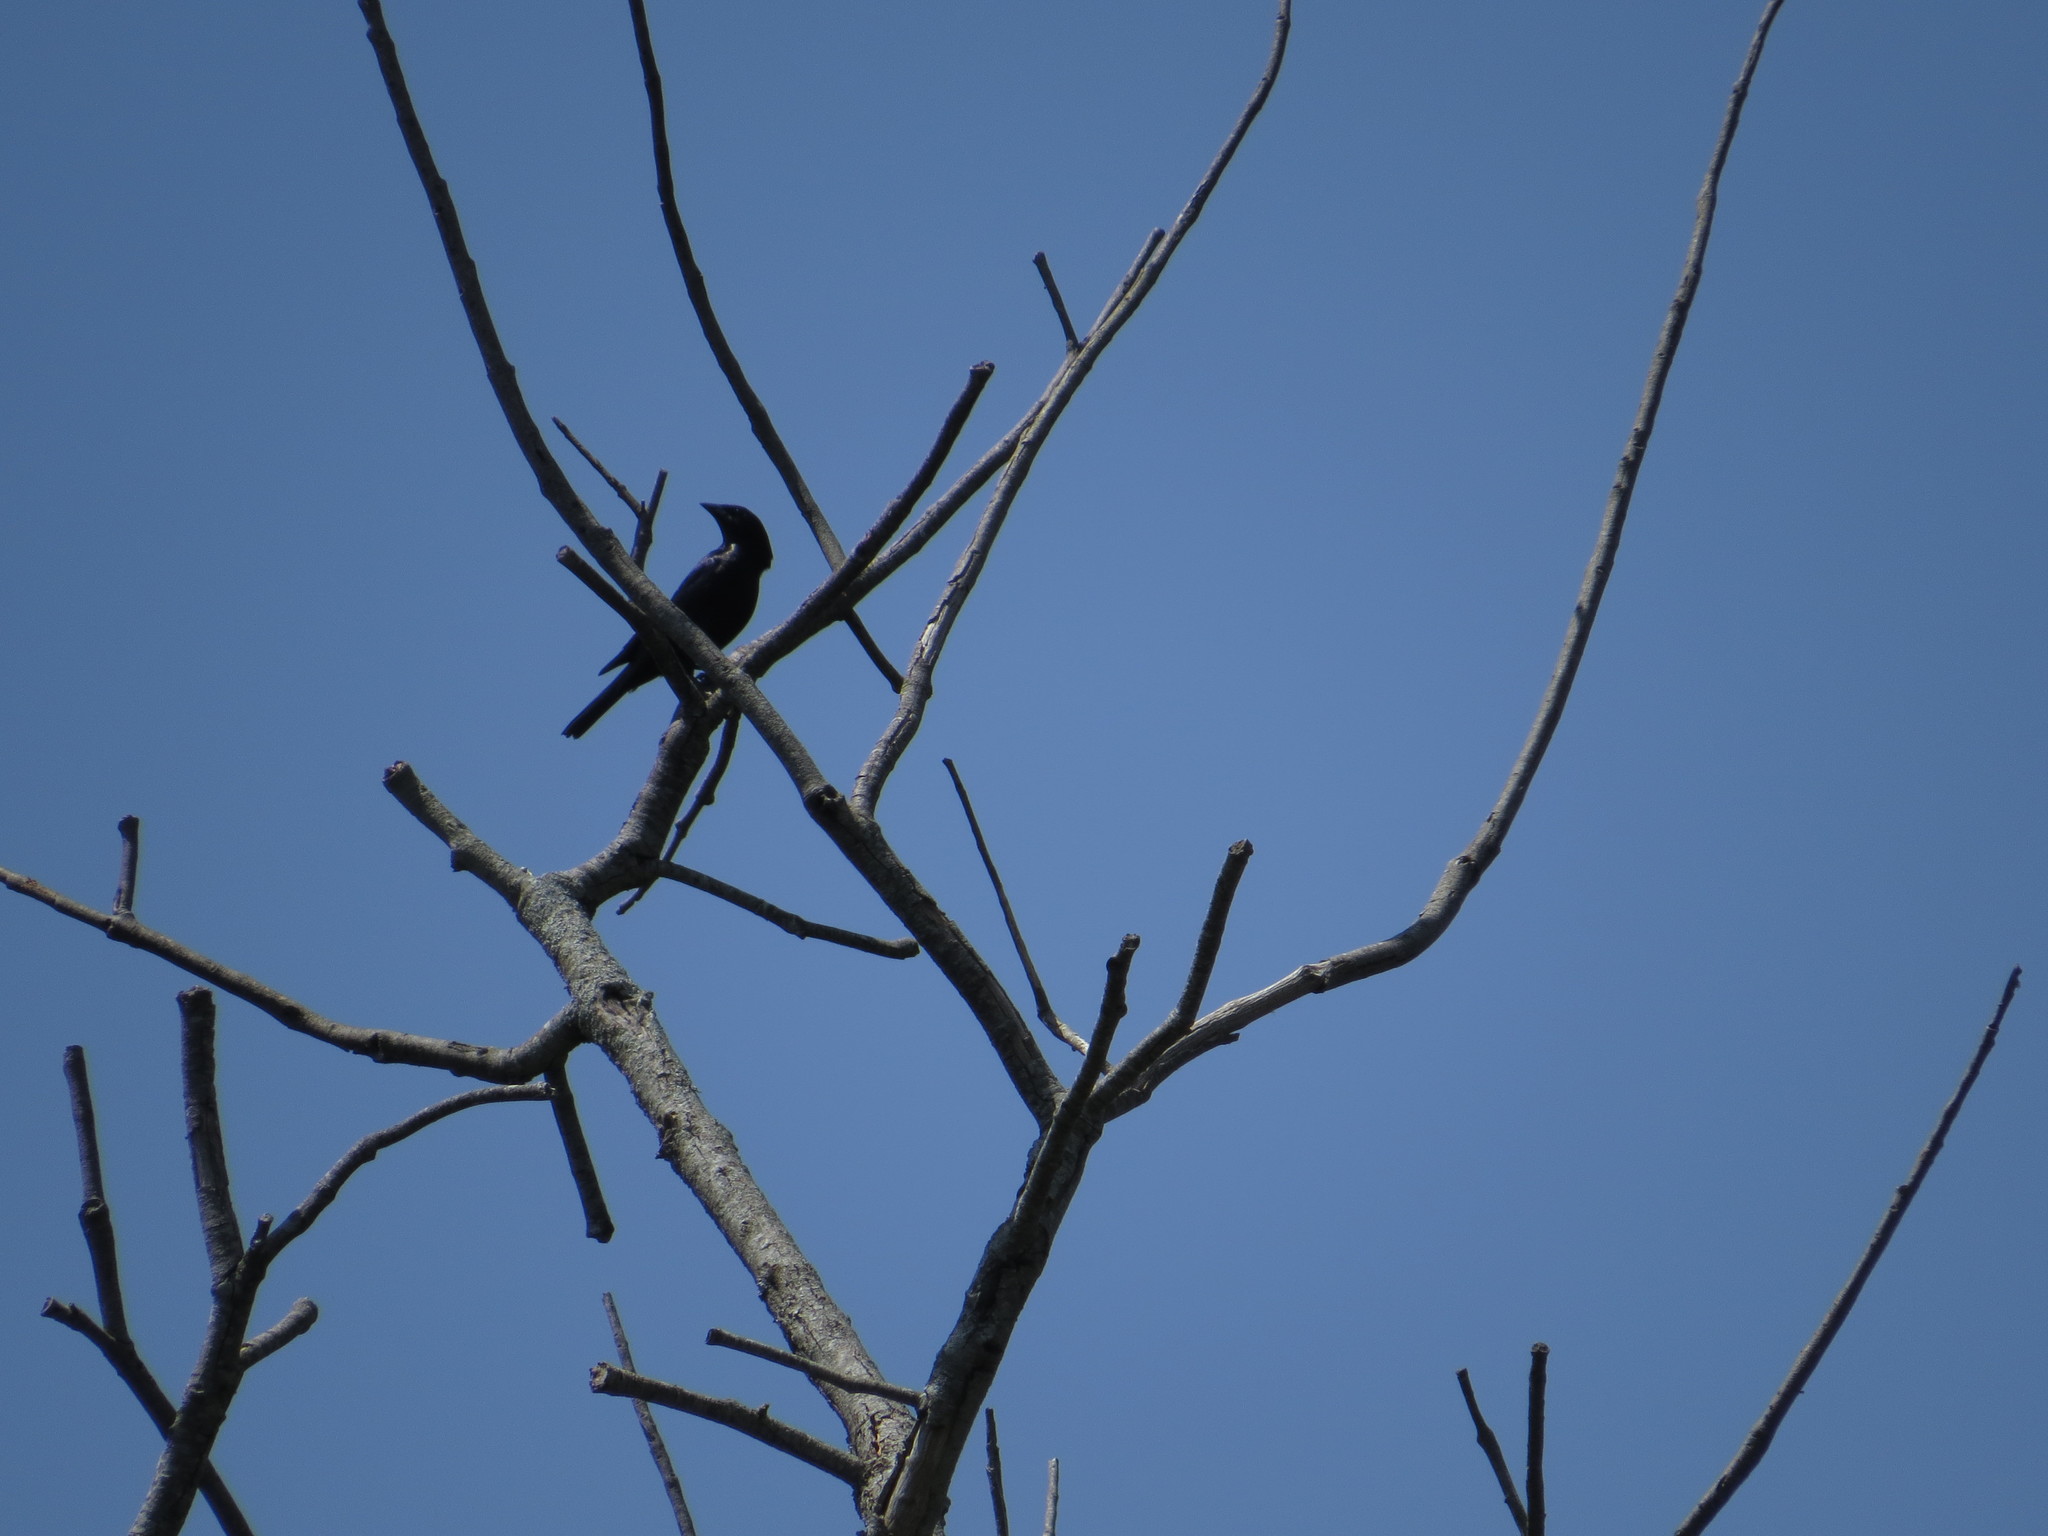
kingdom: Animalia
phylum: Chordata
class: Aves
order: Passeriformes
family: Icteridae
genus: Molothrus
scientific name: Molothrus bonariensis
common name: Shiny cowbird
